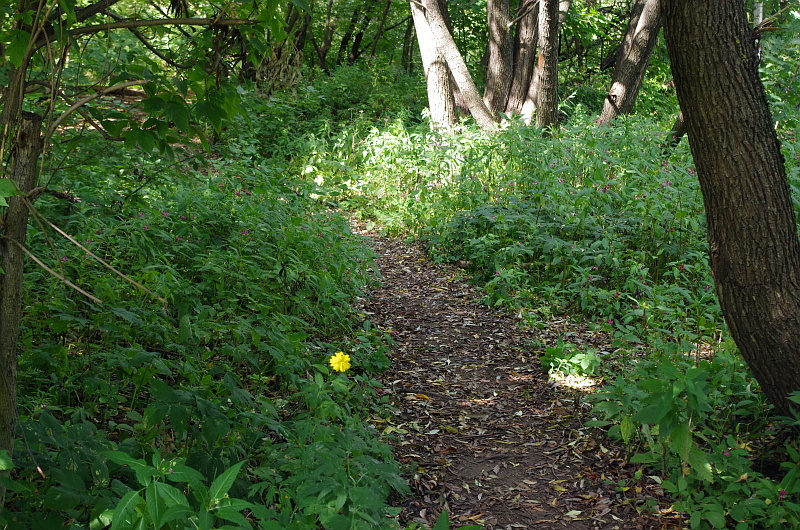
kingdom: Plantae
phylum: Tracheophyta
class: Magnoliopsida
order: Asterales
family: Asteraceae
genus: Rudbeckia
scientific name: Rudbeckia laciniata
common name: Coneflower
